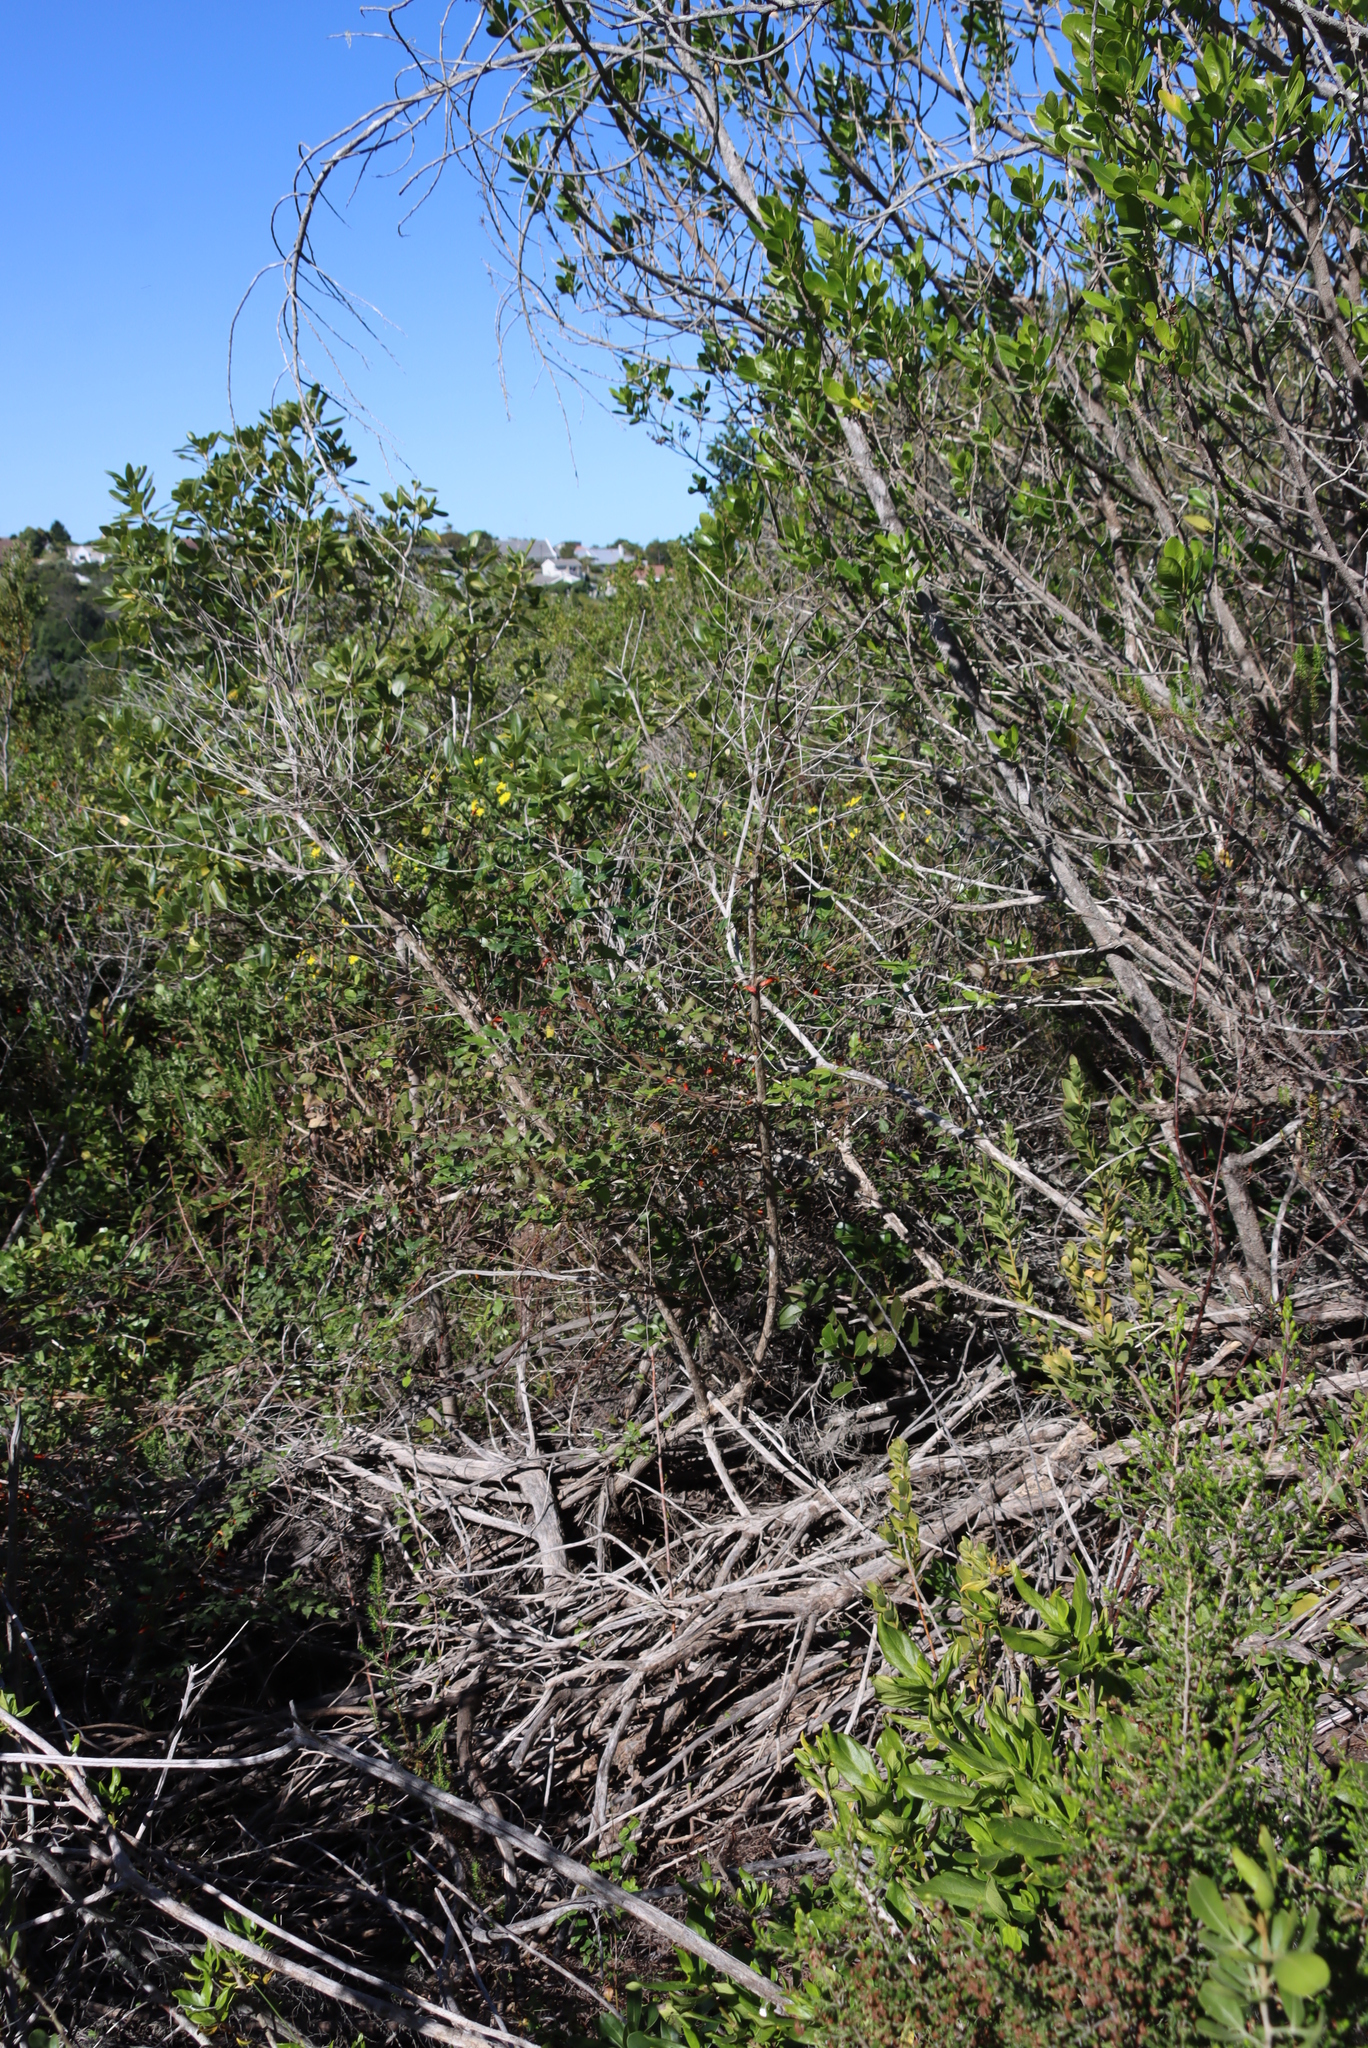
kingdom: Plantae
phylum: Tracheophyta
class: Magnoliopsida
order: Lamiales
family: Stilbaceae
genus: Halleria
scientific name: Halleria lucida
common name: Tree fuschia
